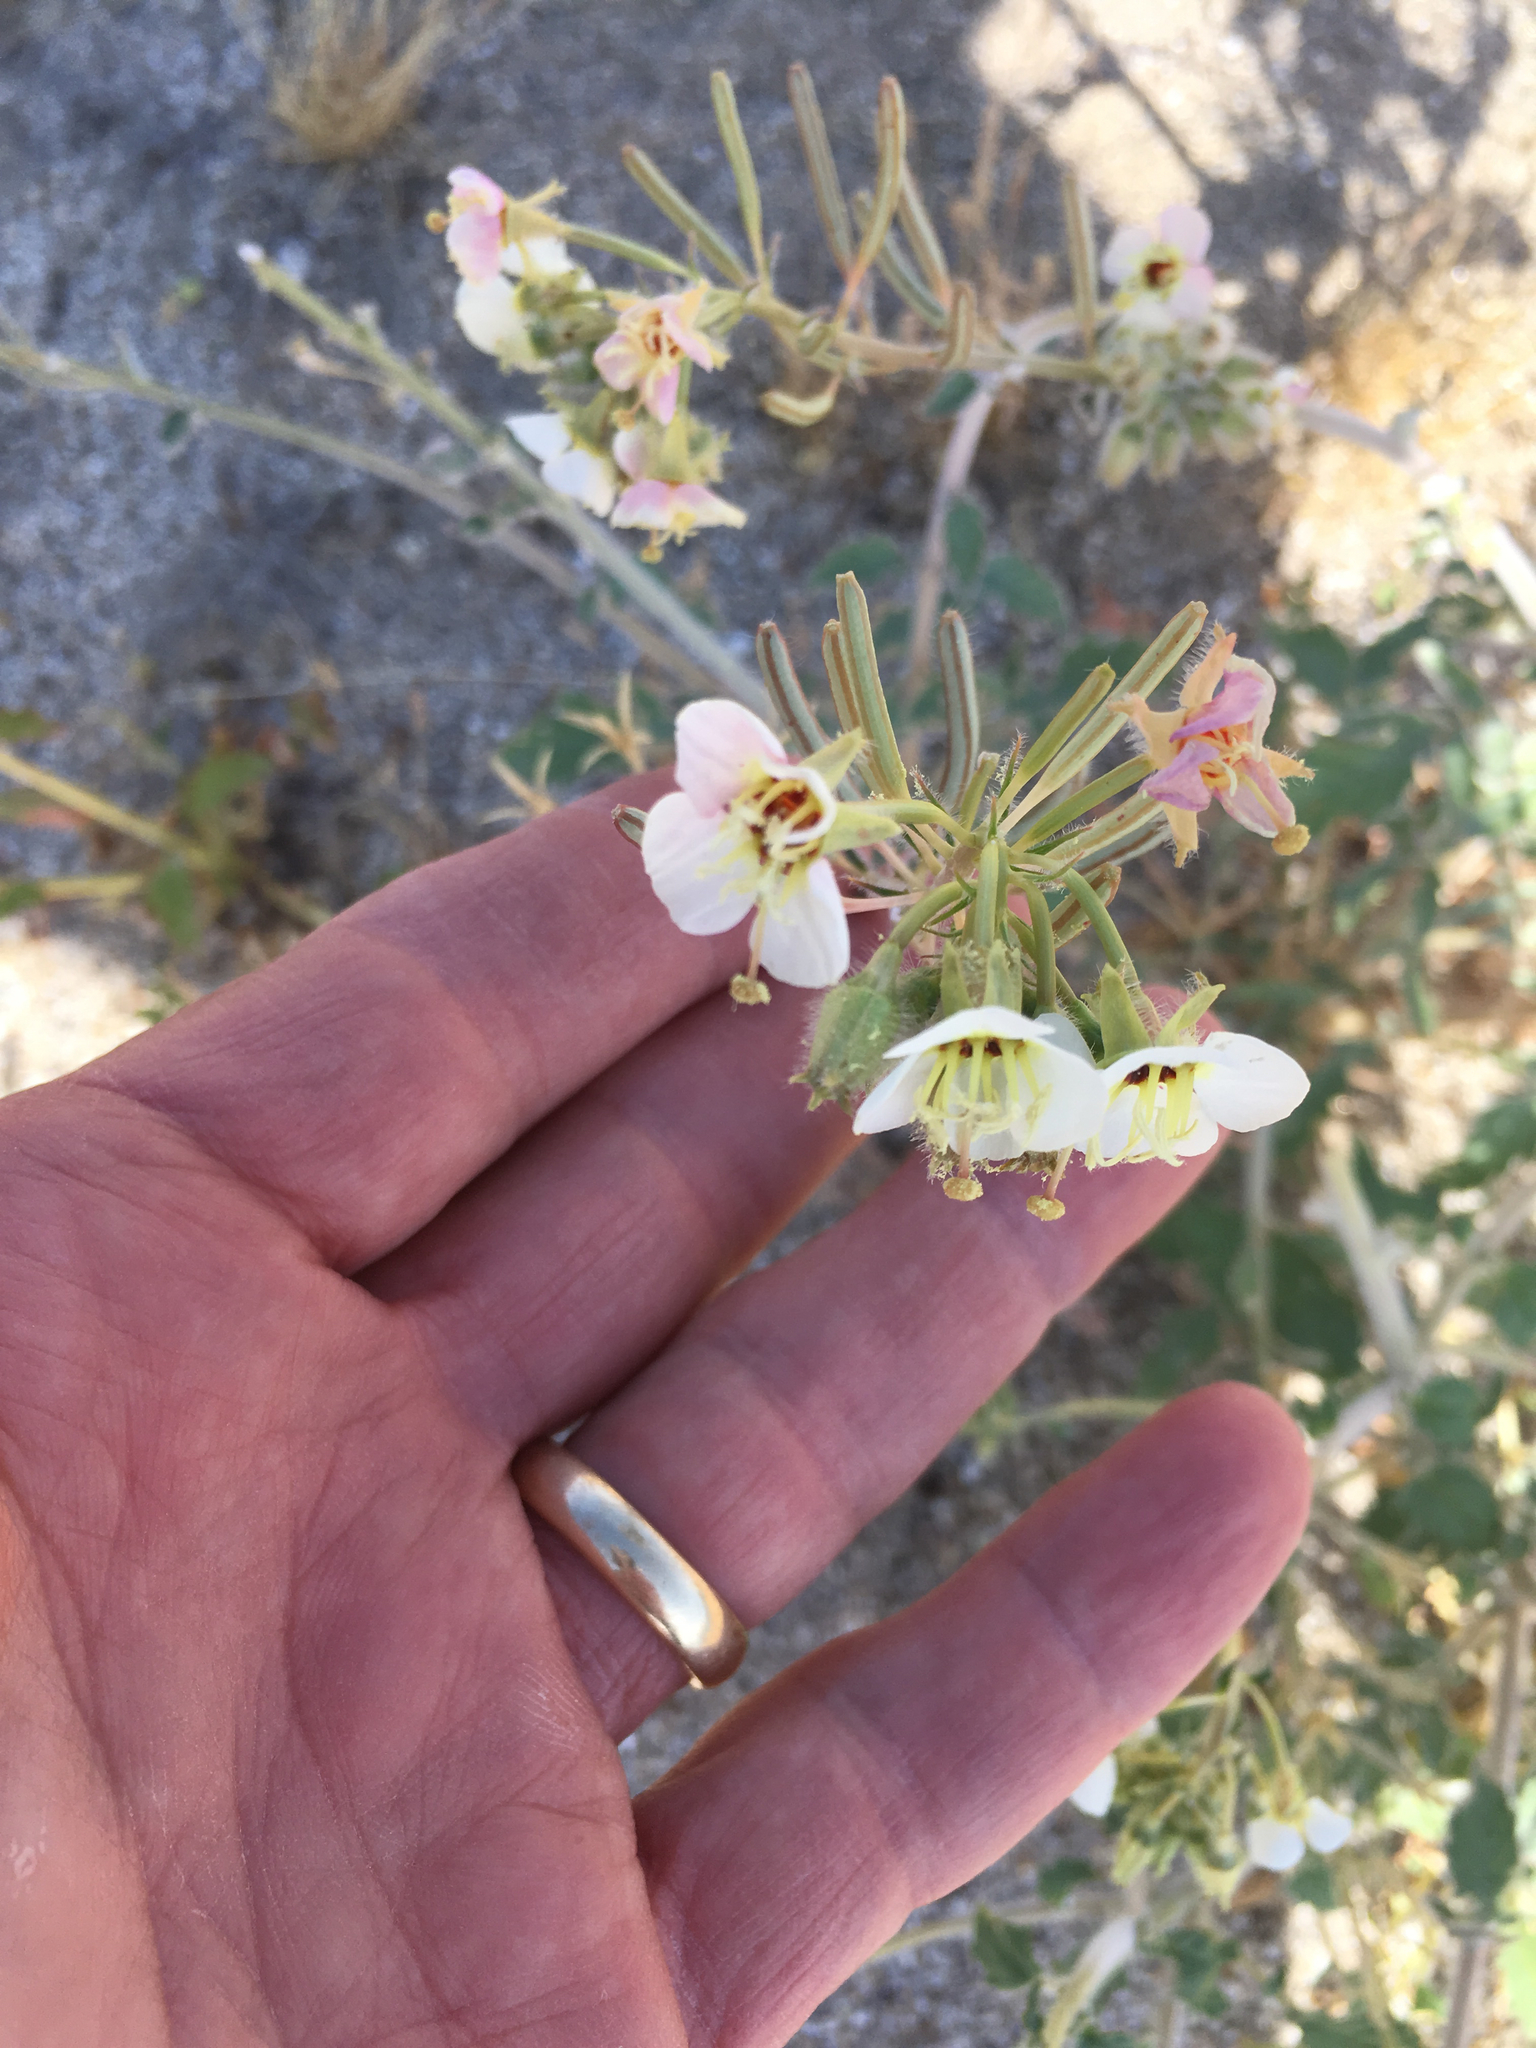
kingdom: Plantae
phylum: Tracheophyta
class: Magnoliopsida
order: Myrtales
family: Onagraceae
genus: Chylismia
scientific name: Chylismia claviformis
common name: Browneyes
